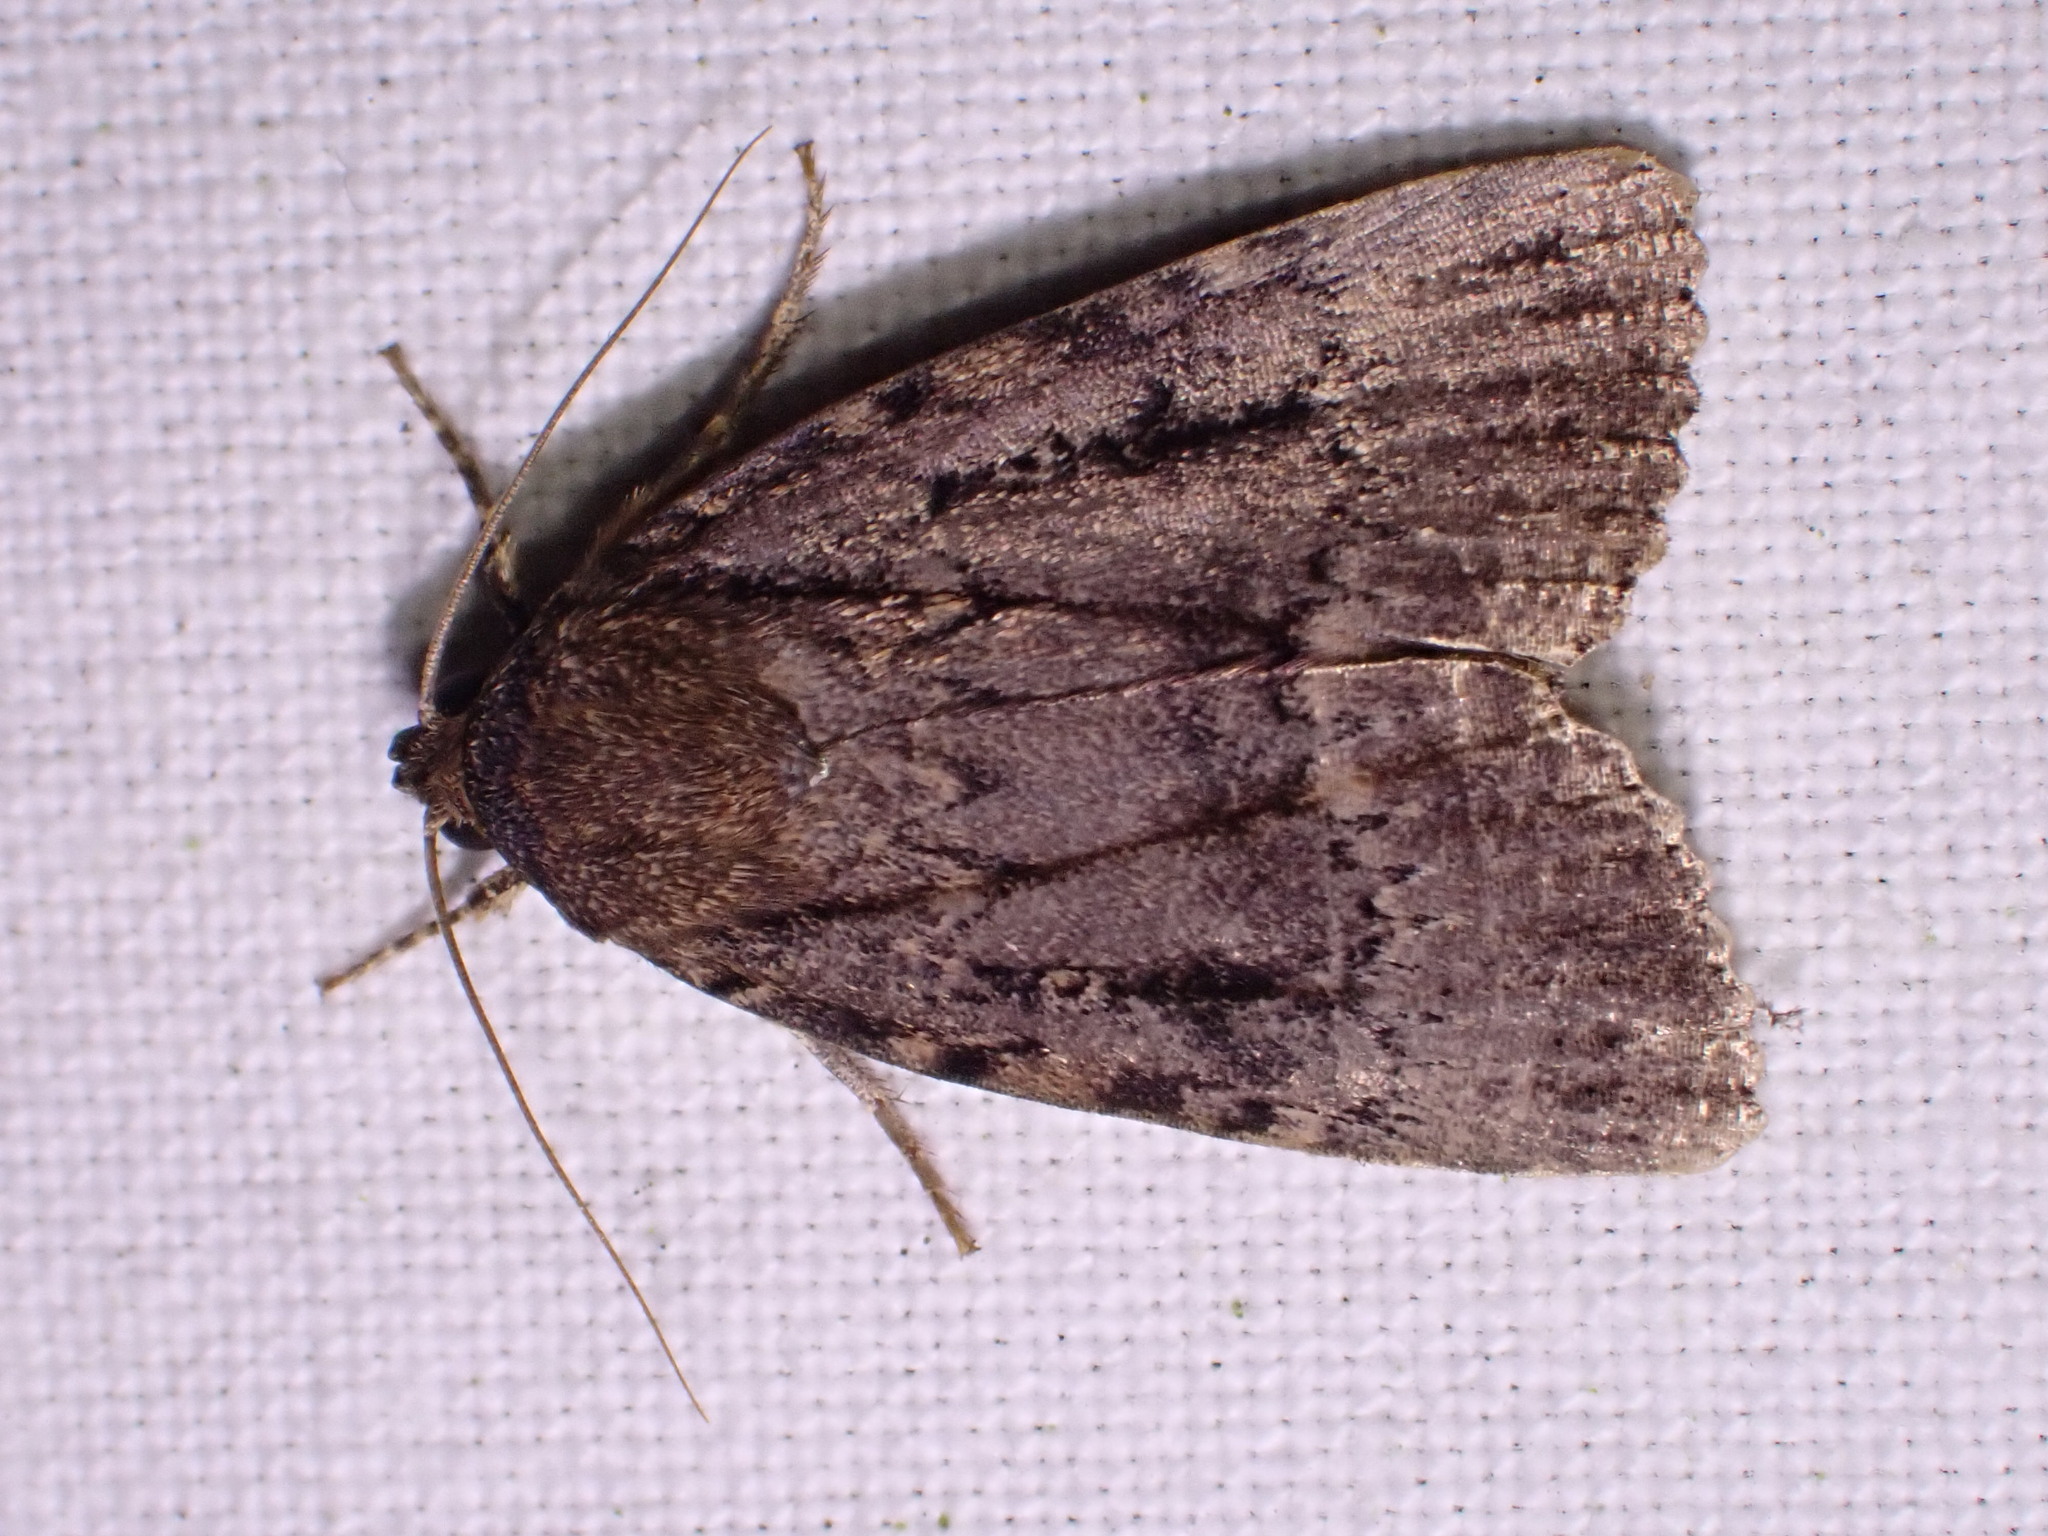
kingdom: Animalia
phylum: Arthropoda
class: Insecta
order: Lepidoptera
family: Noctuidae
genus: Amphipyra
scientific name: Amphipyra pyramidea
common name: Copper underwing
